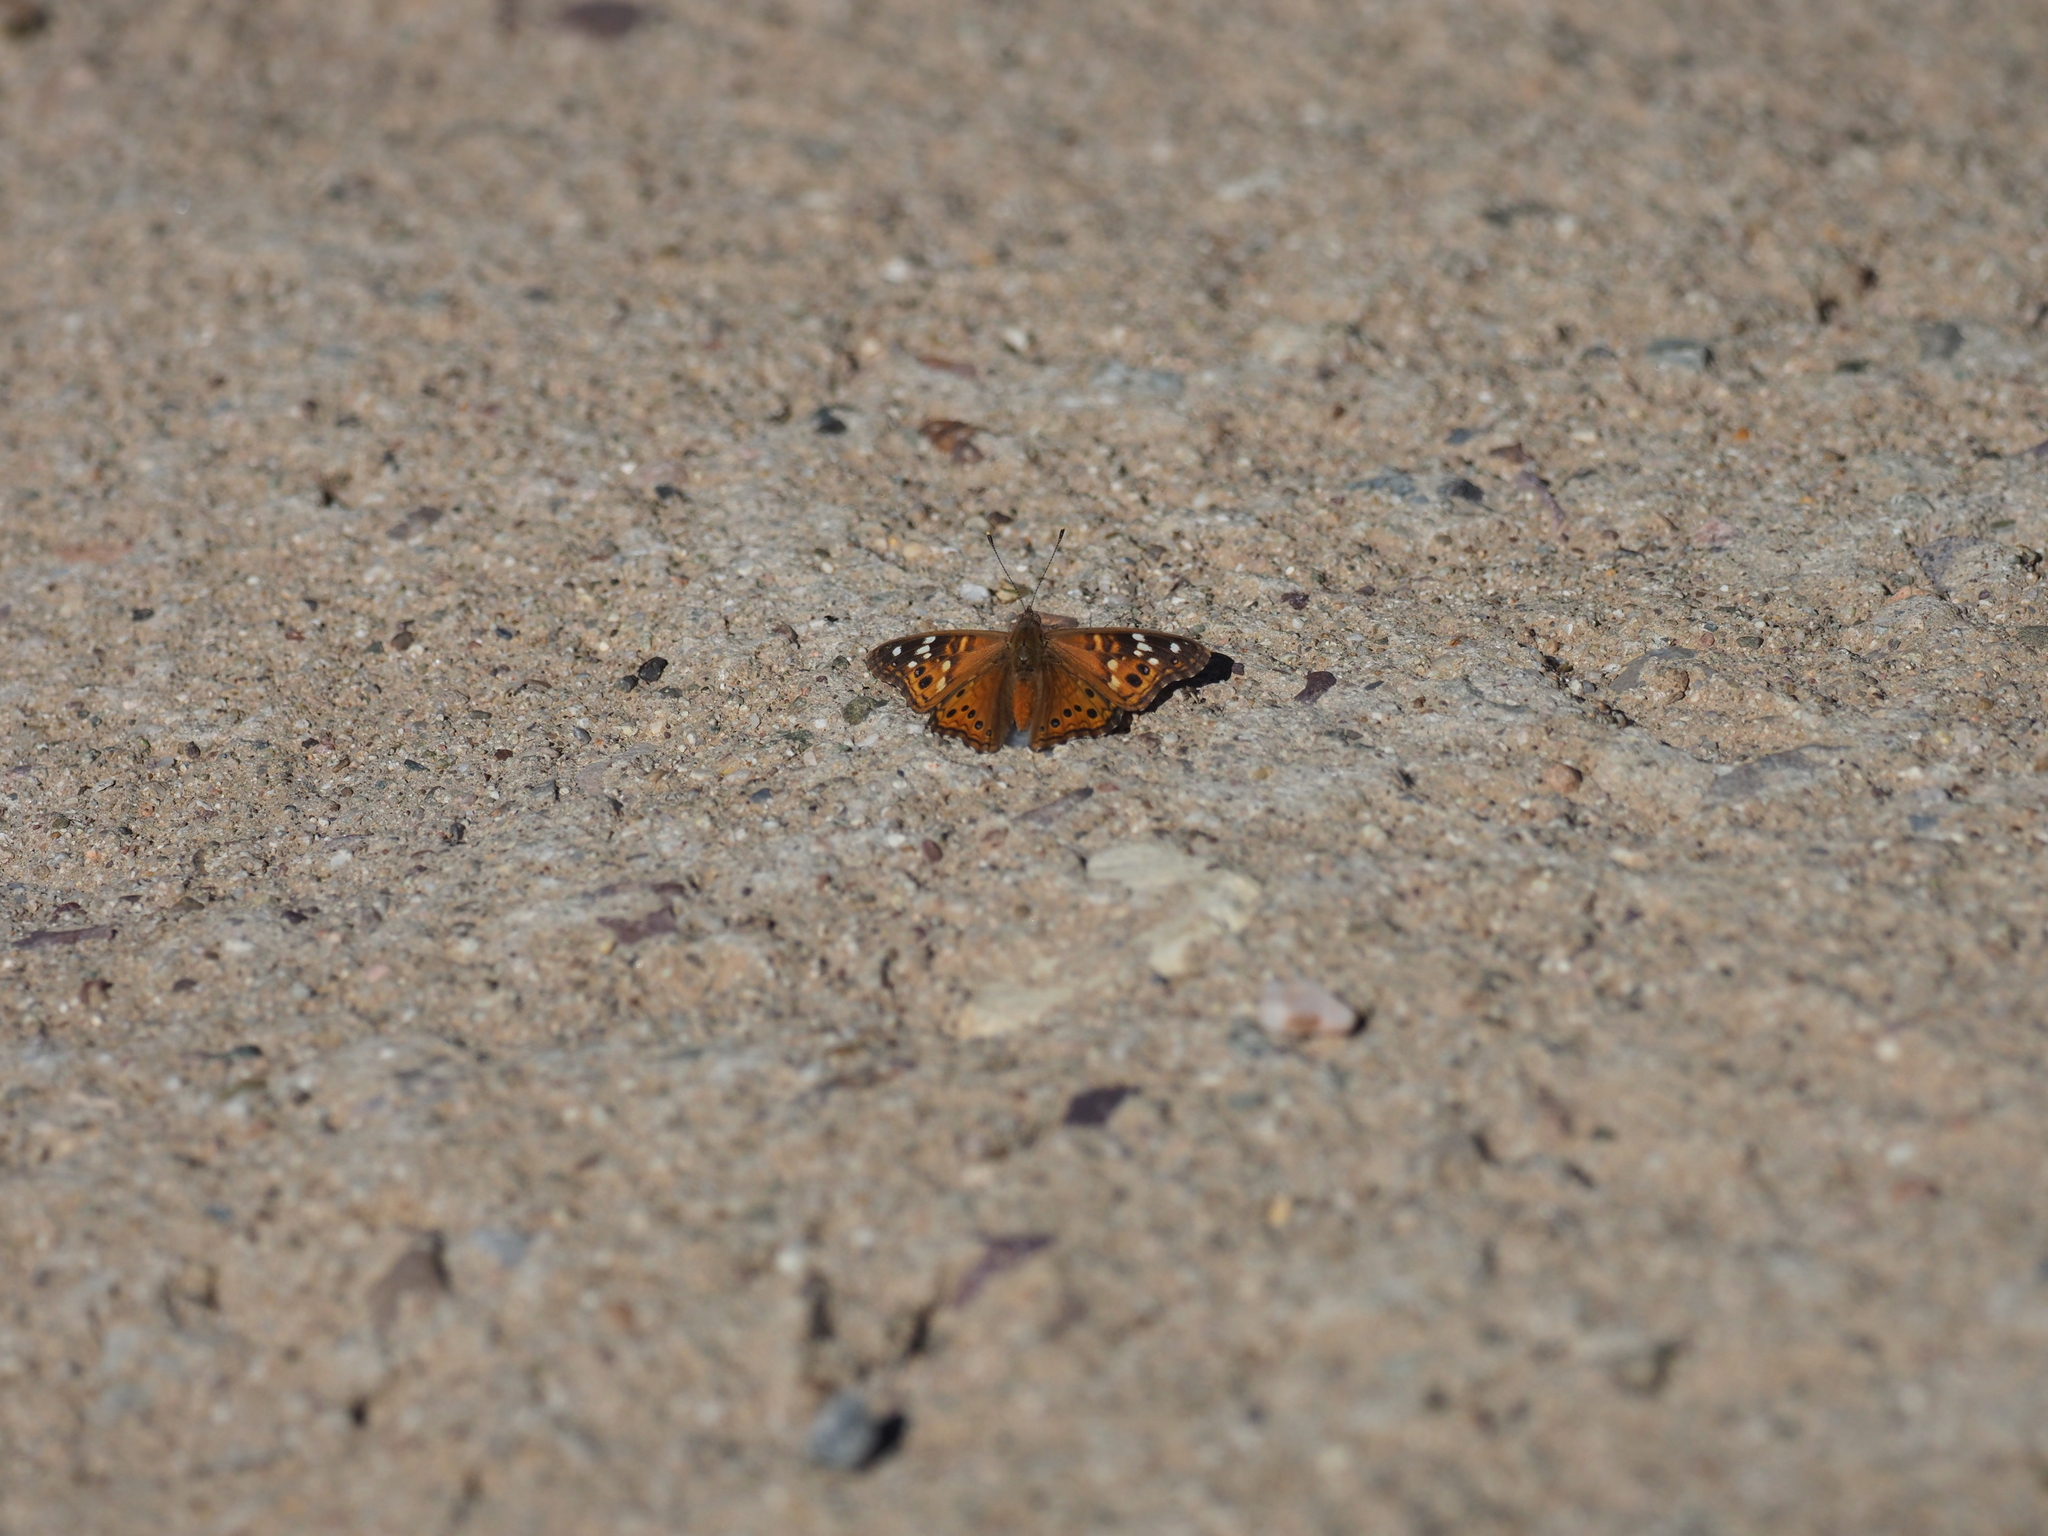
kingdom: Animalia
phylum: Arthropoda
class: Insecta
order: Lepidoptera
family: Nymphalidae
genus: Asterocampa
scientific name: Asterocampa leilia
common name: Empress leilia
